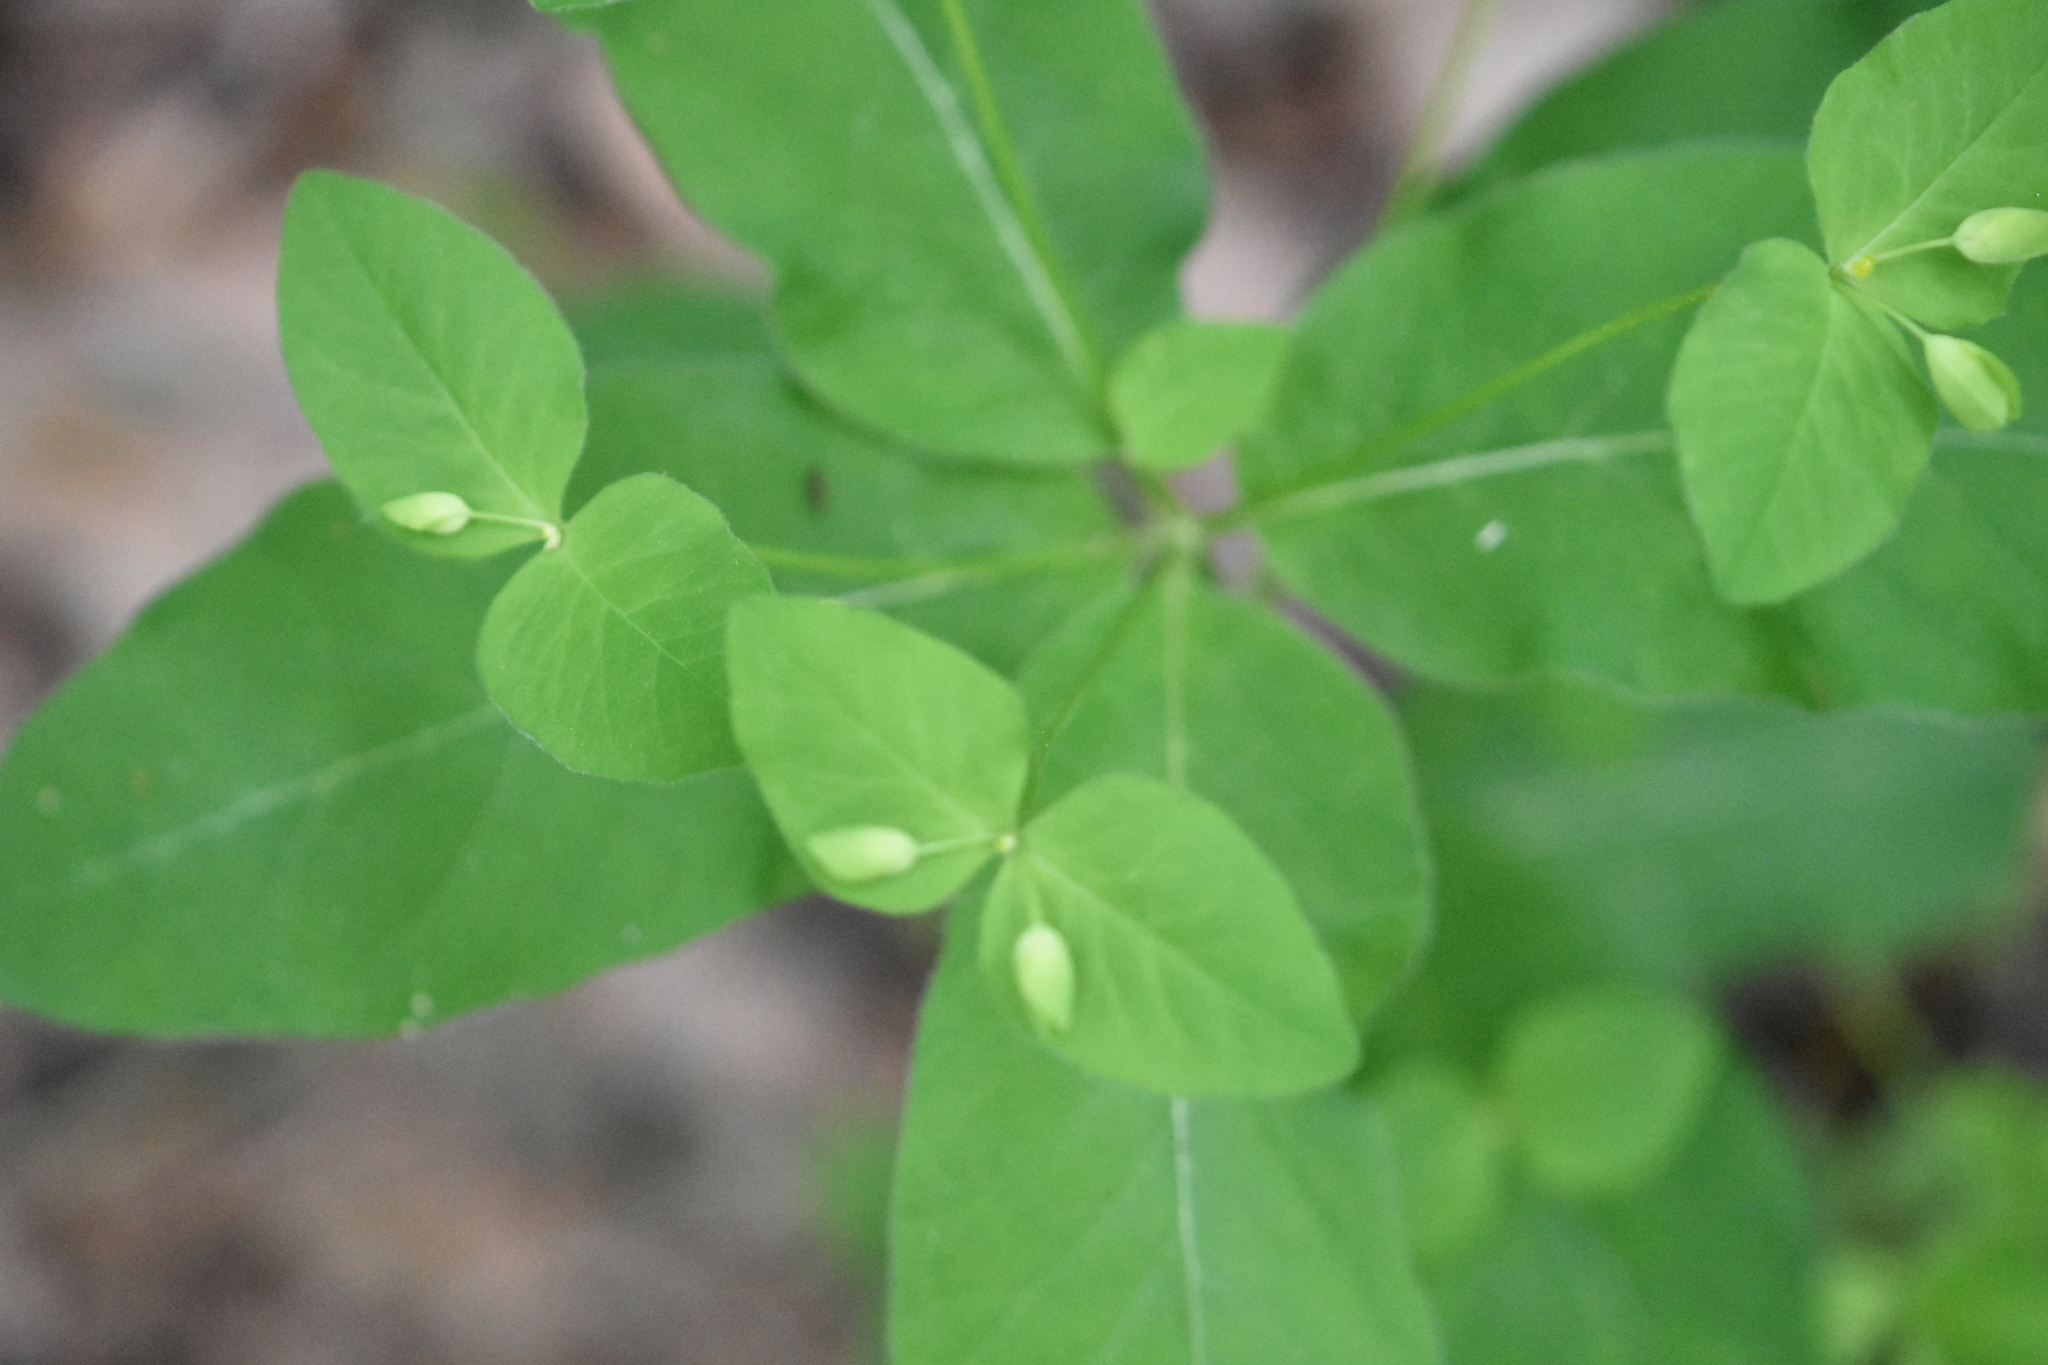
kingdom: Plantae
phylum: Tracheophyta
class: Magnoliopsida
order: Malpighiales
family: Euphorbiaceae
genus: Euphorbia
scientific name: Euphorbia squamosa
